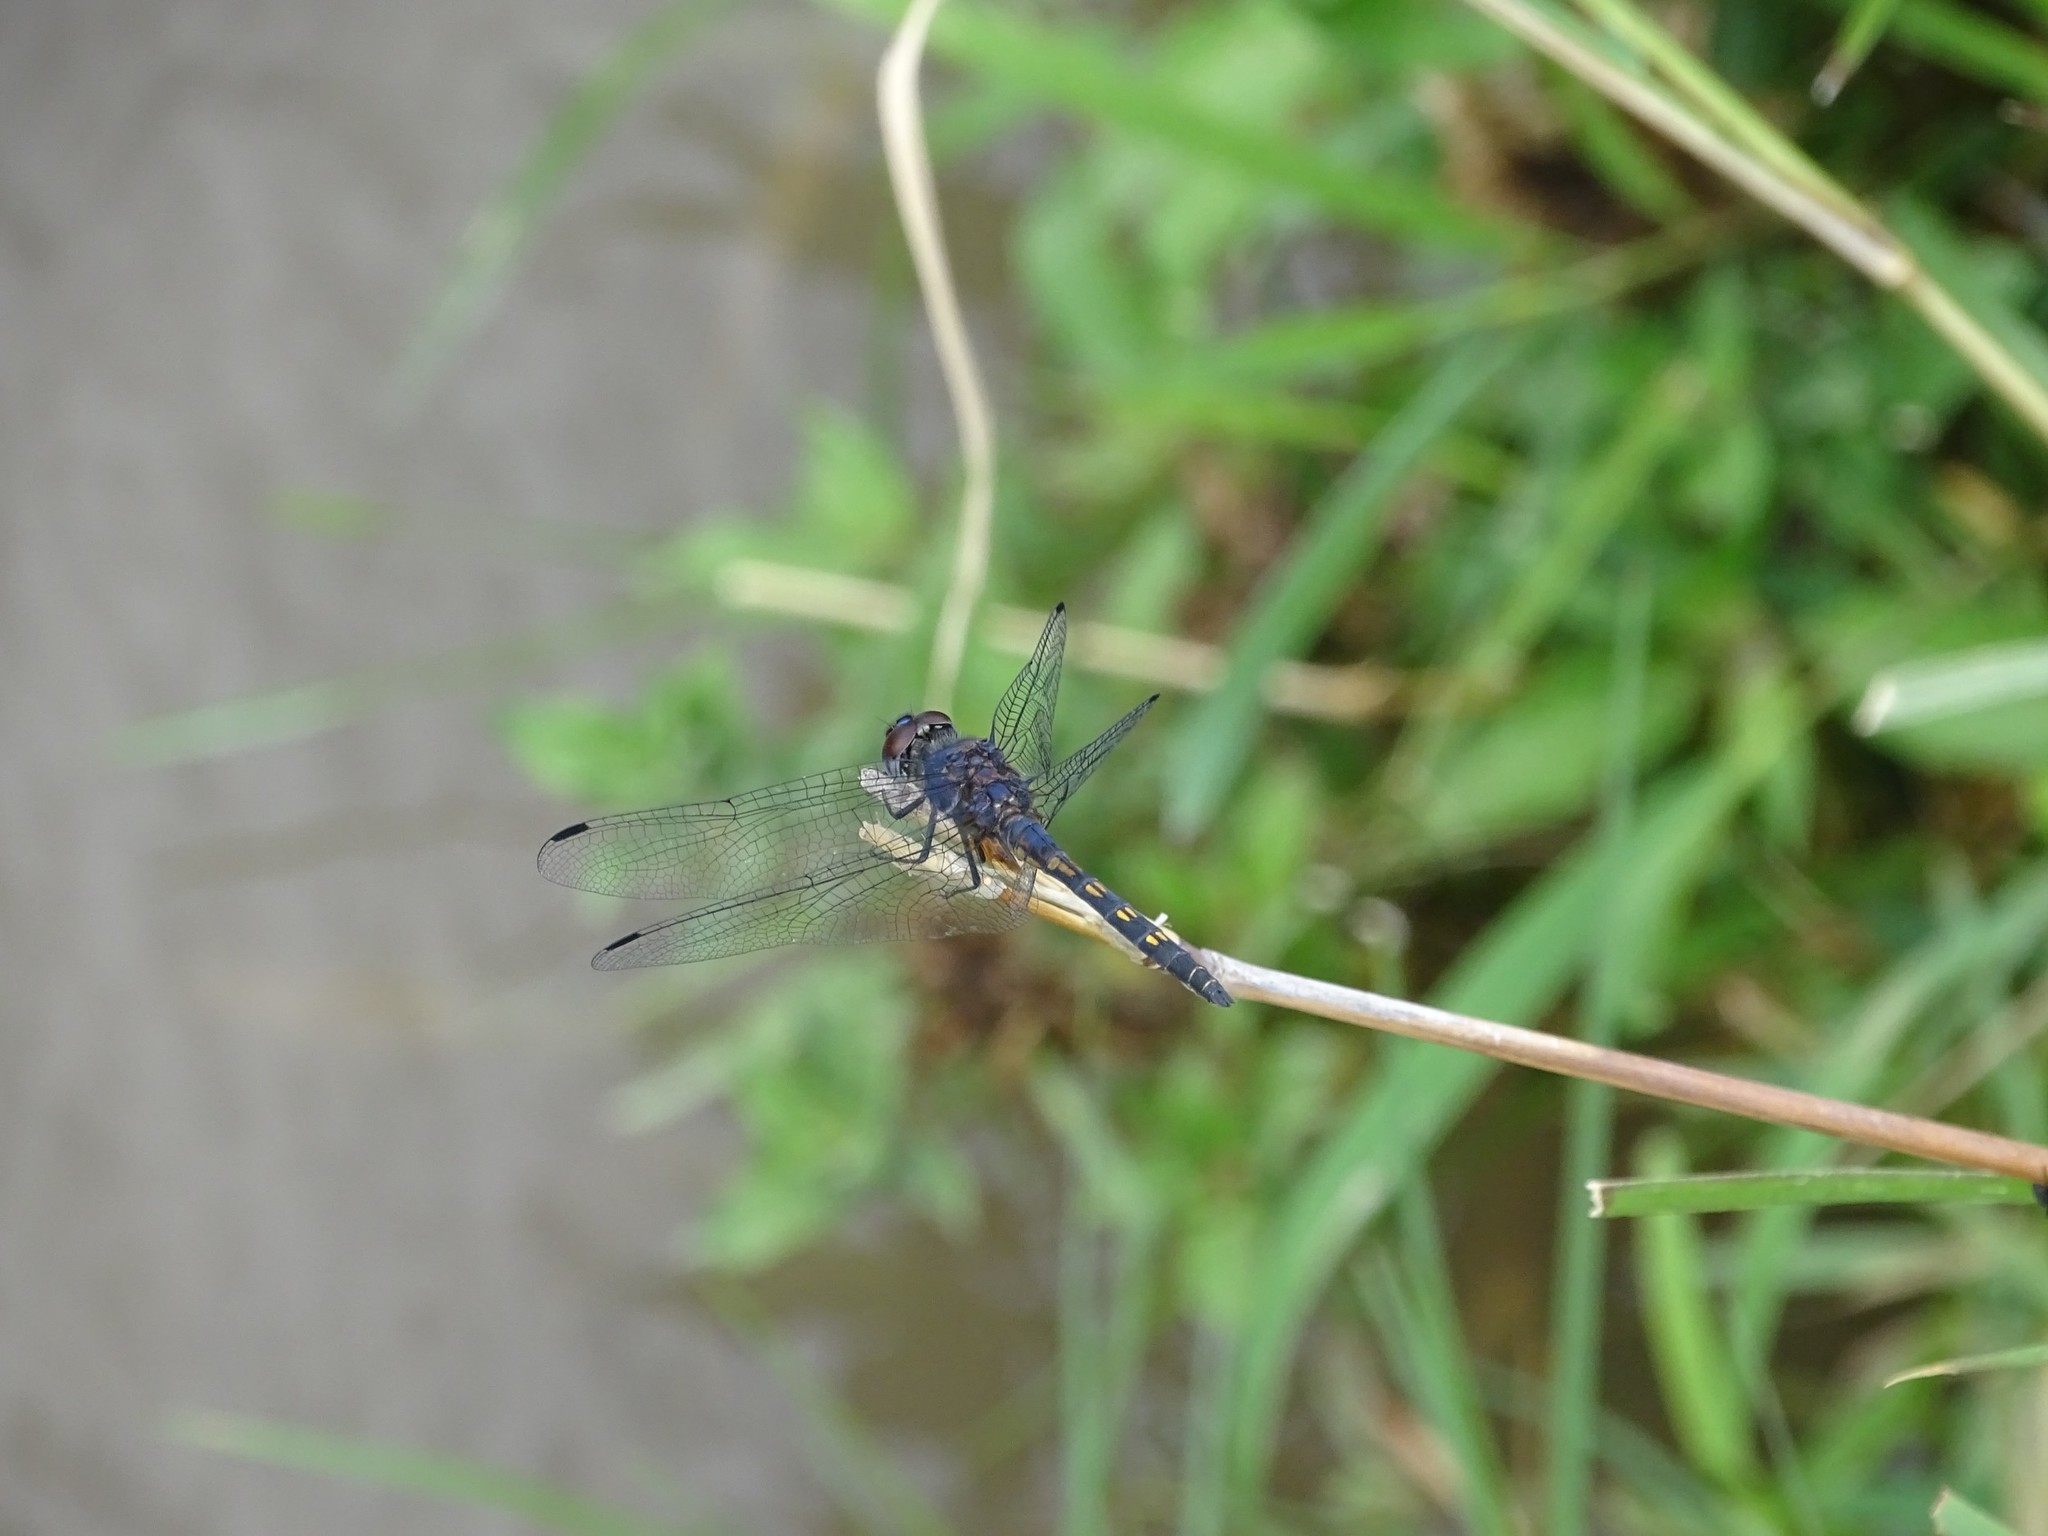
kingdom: Animalia
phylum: Arthropoda
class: Insecta
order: Odonata
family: Libellulidae
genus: Trithemis
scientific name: Trithemis festiva
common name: Indigo dropwing
